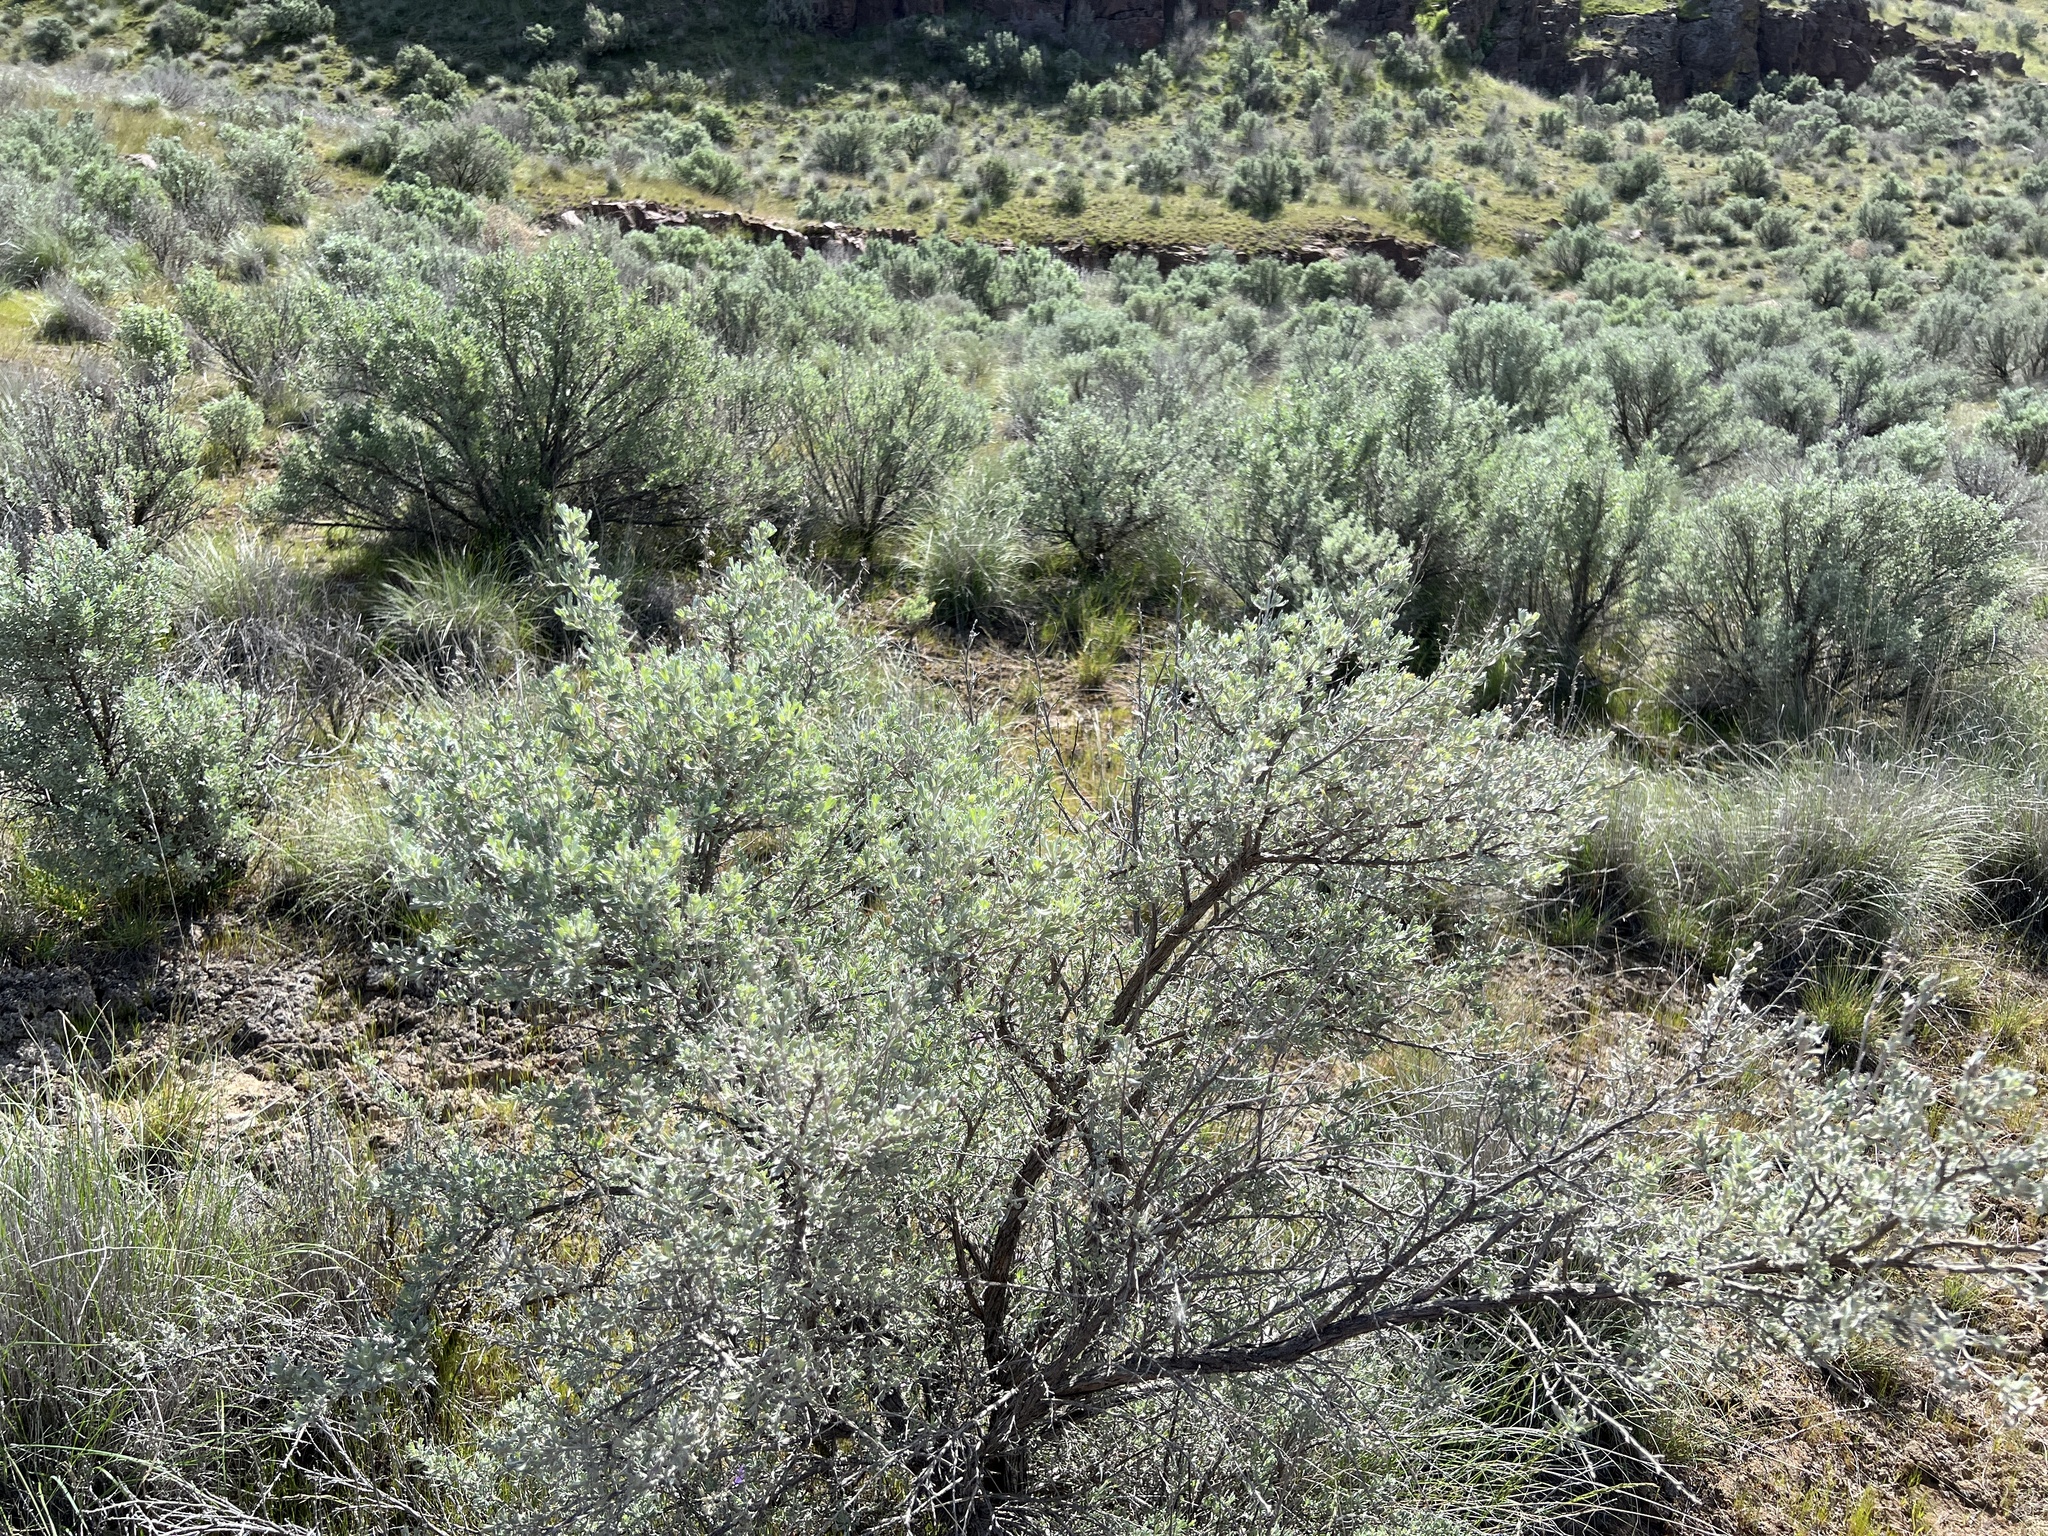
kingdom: Plantae
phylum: Tracheophyta
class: Magnoliopsida
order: Asterales
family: Asteraceae
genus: Artemisia
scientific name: Artemisia tridentata
